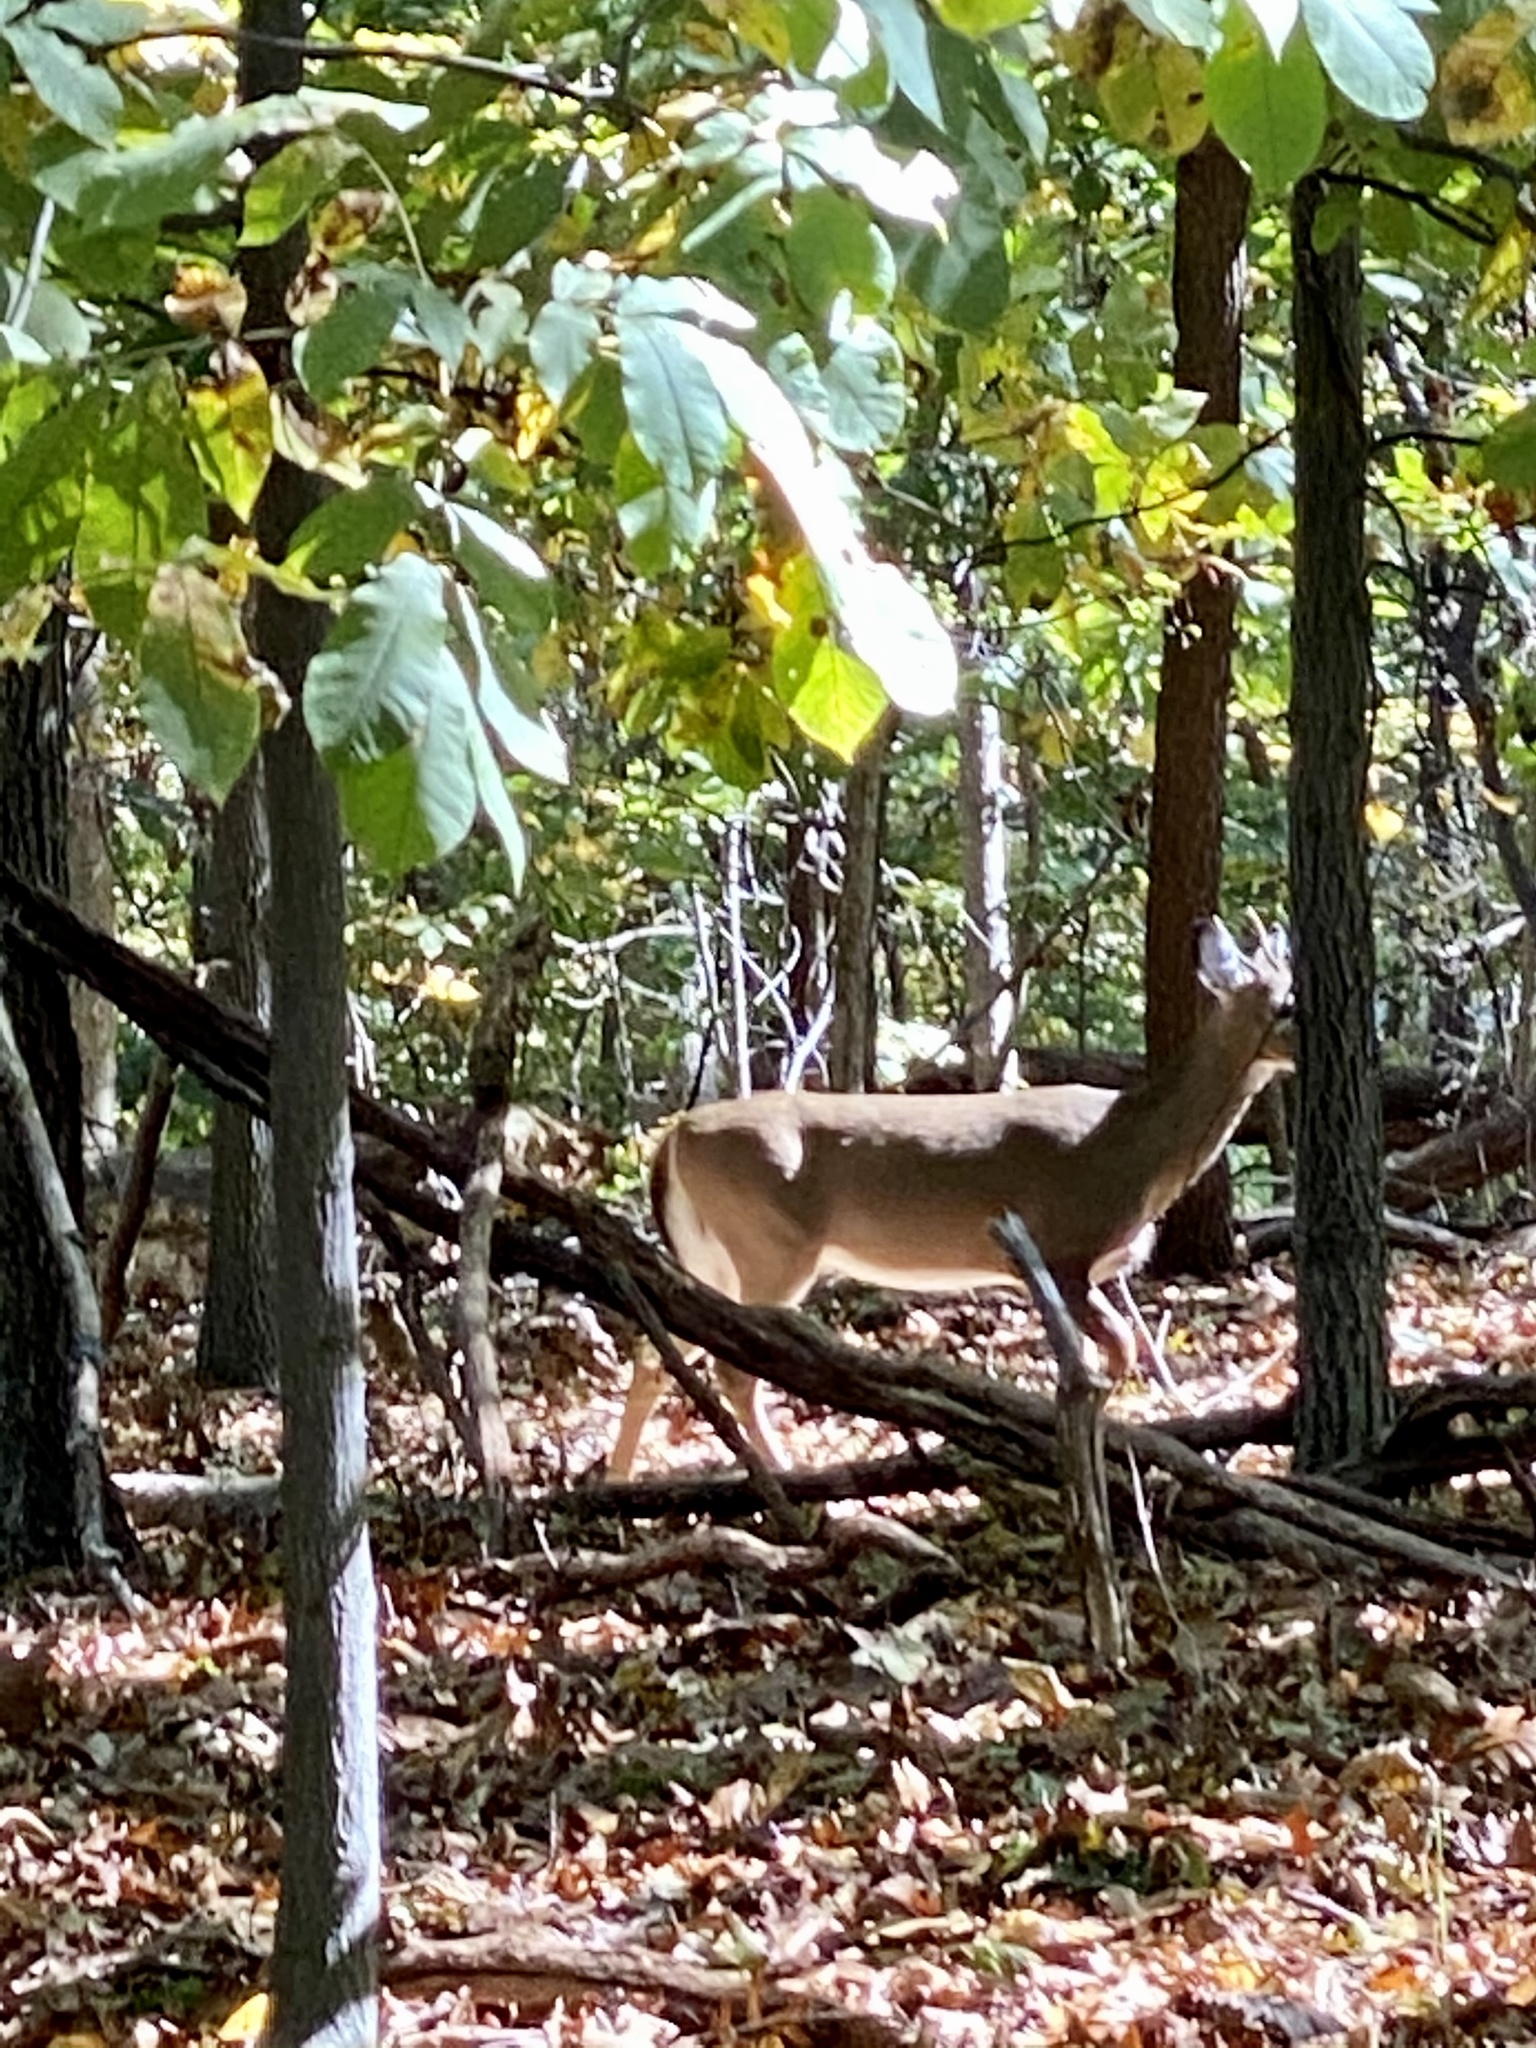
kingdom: Animalia
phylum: Chordata
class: Mammalia
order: Artiodactyla
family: Cervidae
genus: Odocoileus
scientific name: Odocoileus virginianus
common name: White-tailed deer
